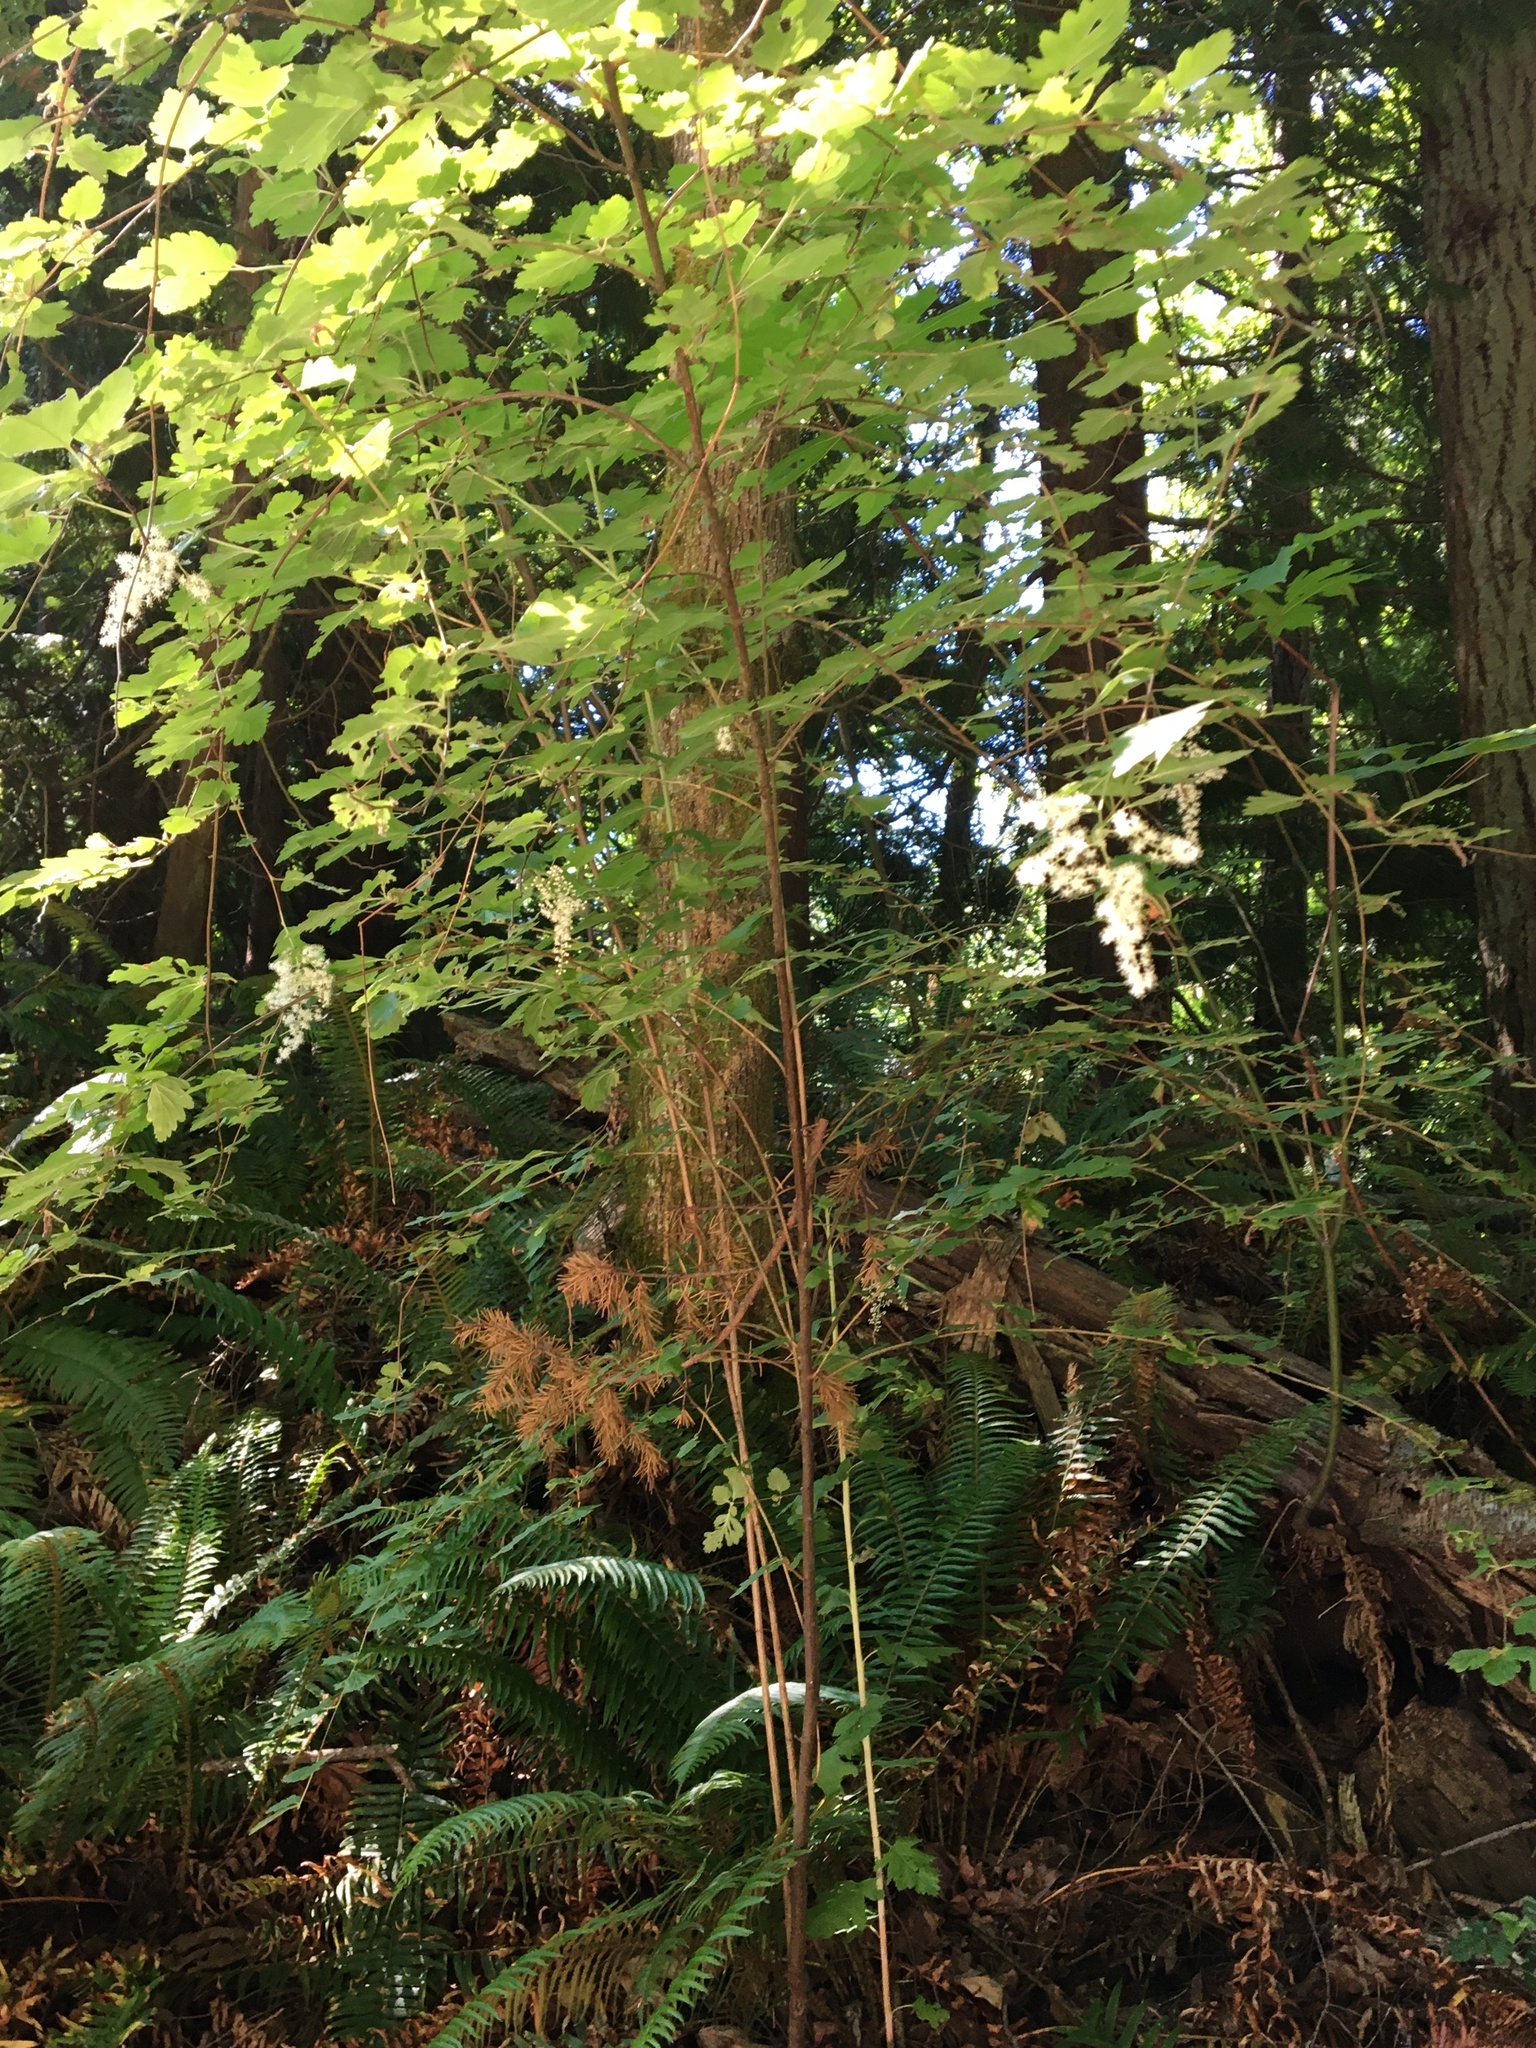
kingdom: Plantae
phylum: Tracheophyta
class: Magnoliopsida
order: Rosales
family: Rosaceae
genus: Holodiscus
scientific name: Holodiscus discolor
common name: Oceanspray
